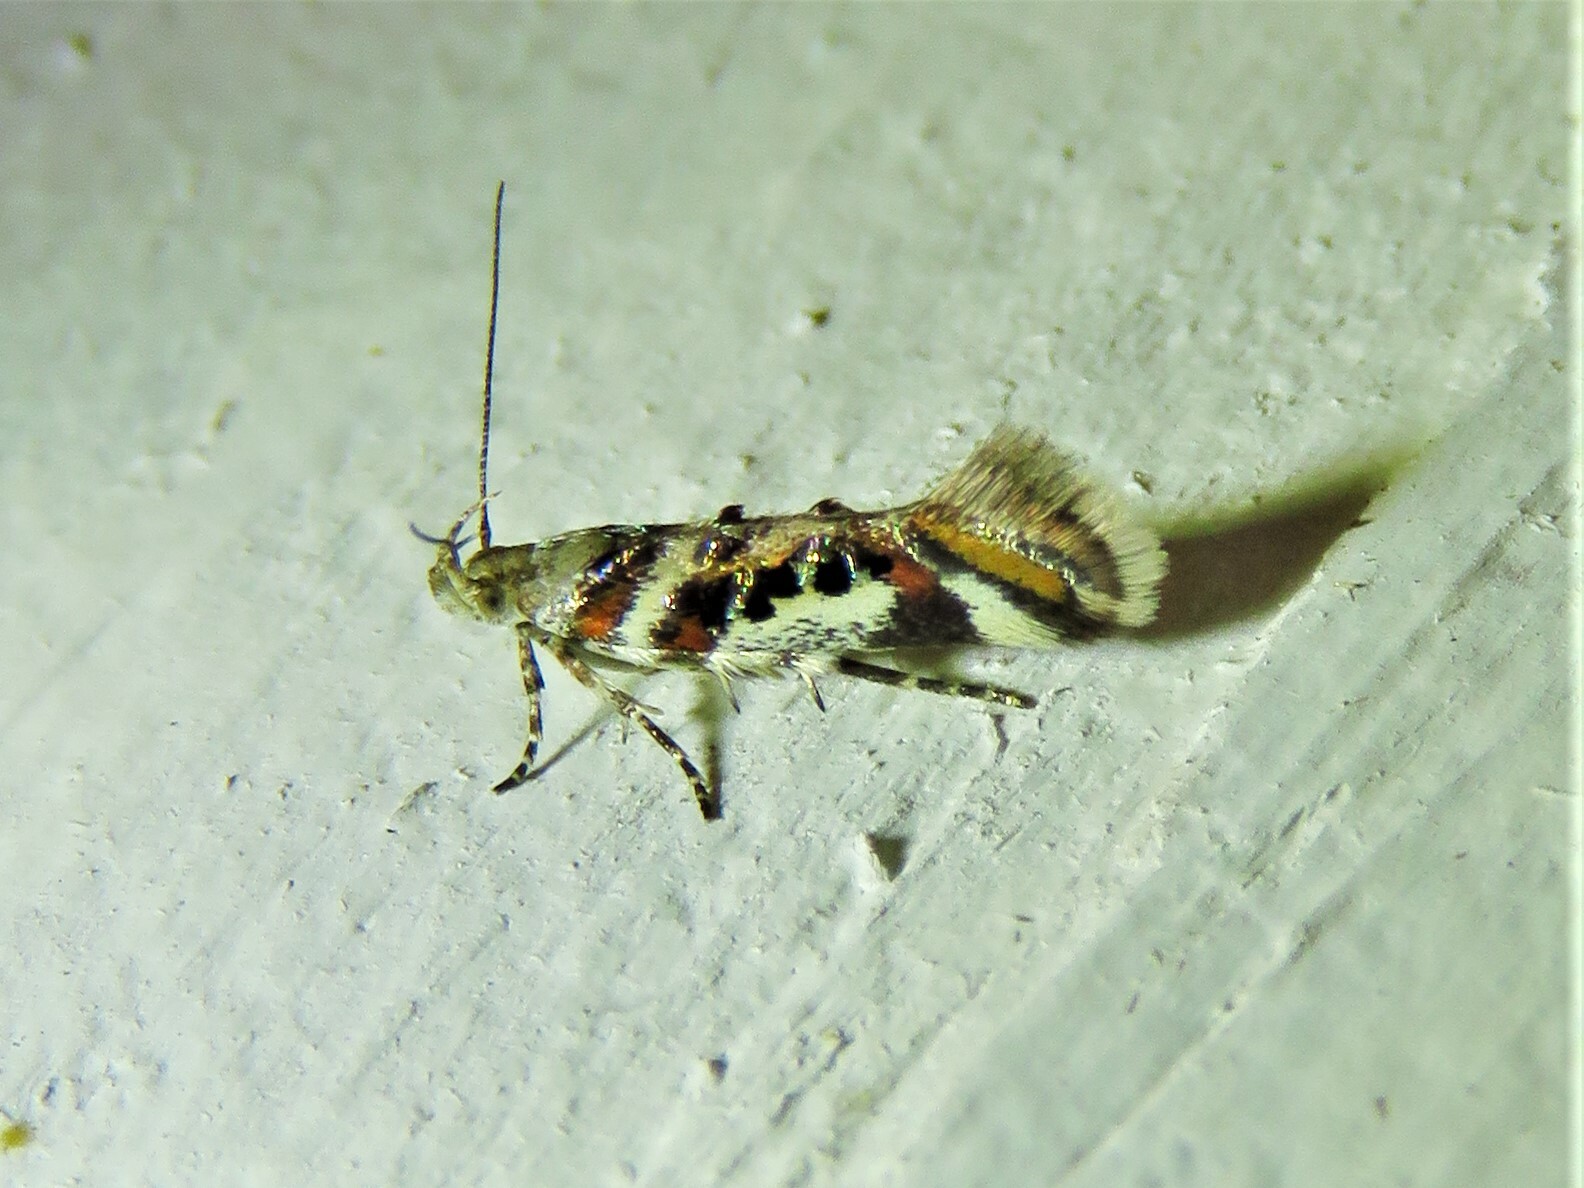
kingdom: Animalia
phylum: Arthropoda
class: Insecta
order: Lepidoptera
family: Gelechiidae
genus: Aristotelia
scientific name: Aristotelia elegantella
